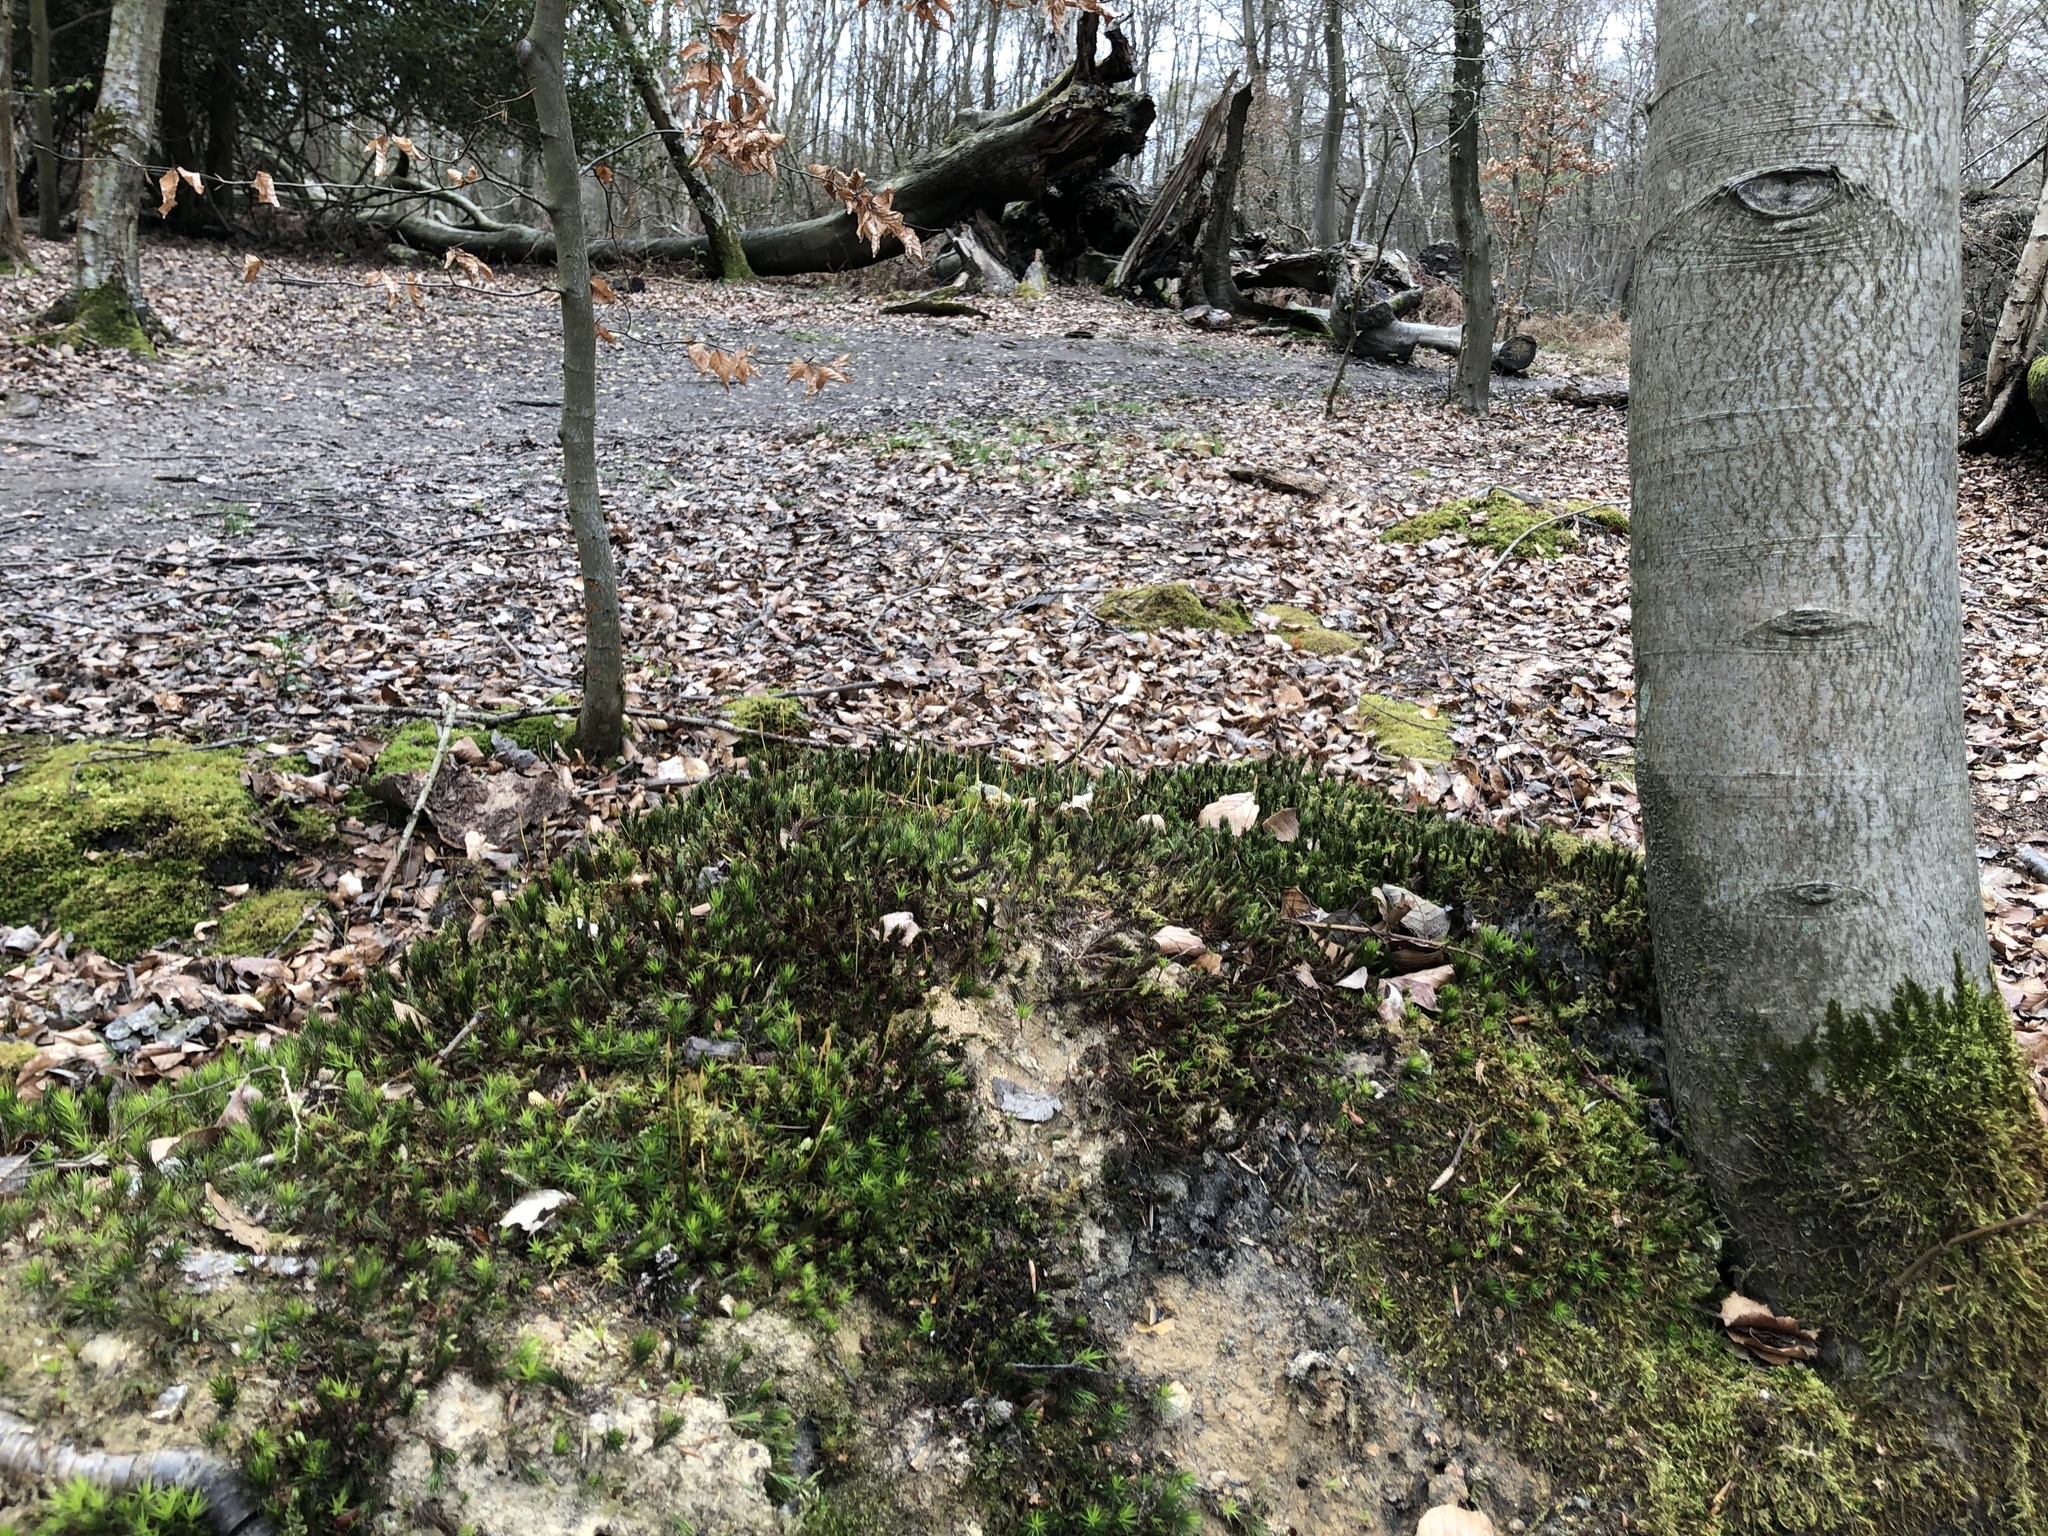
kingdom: Plantae
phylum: Bryophyta
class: Polytrichopsida
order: Polytrichales
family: Polytrichaceae
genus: Polytrichum
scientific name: Polytrichum formosum
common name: Bank haircap moss
